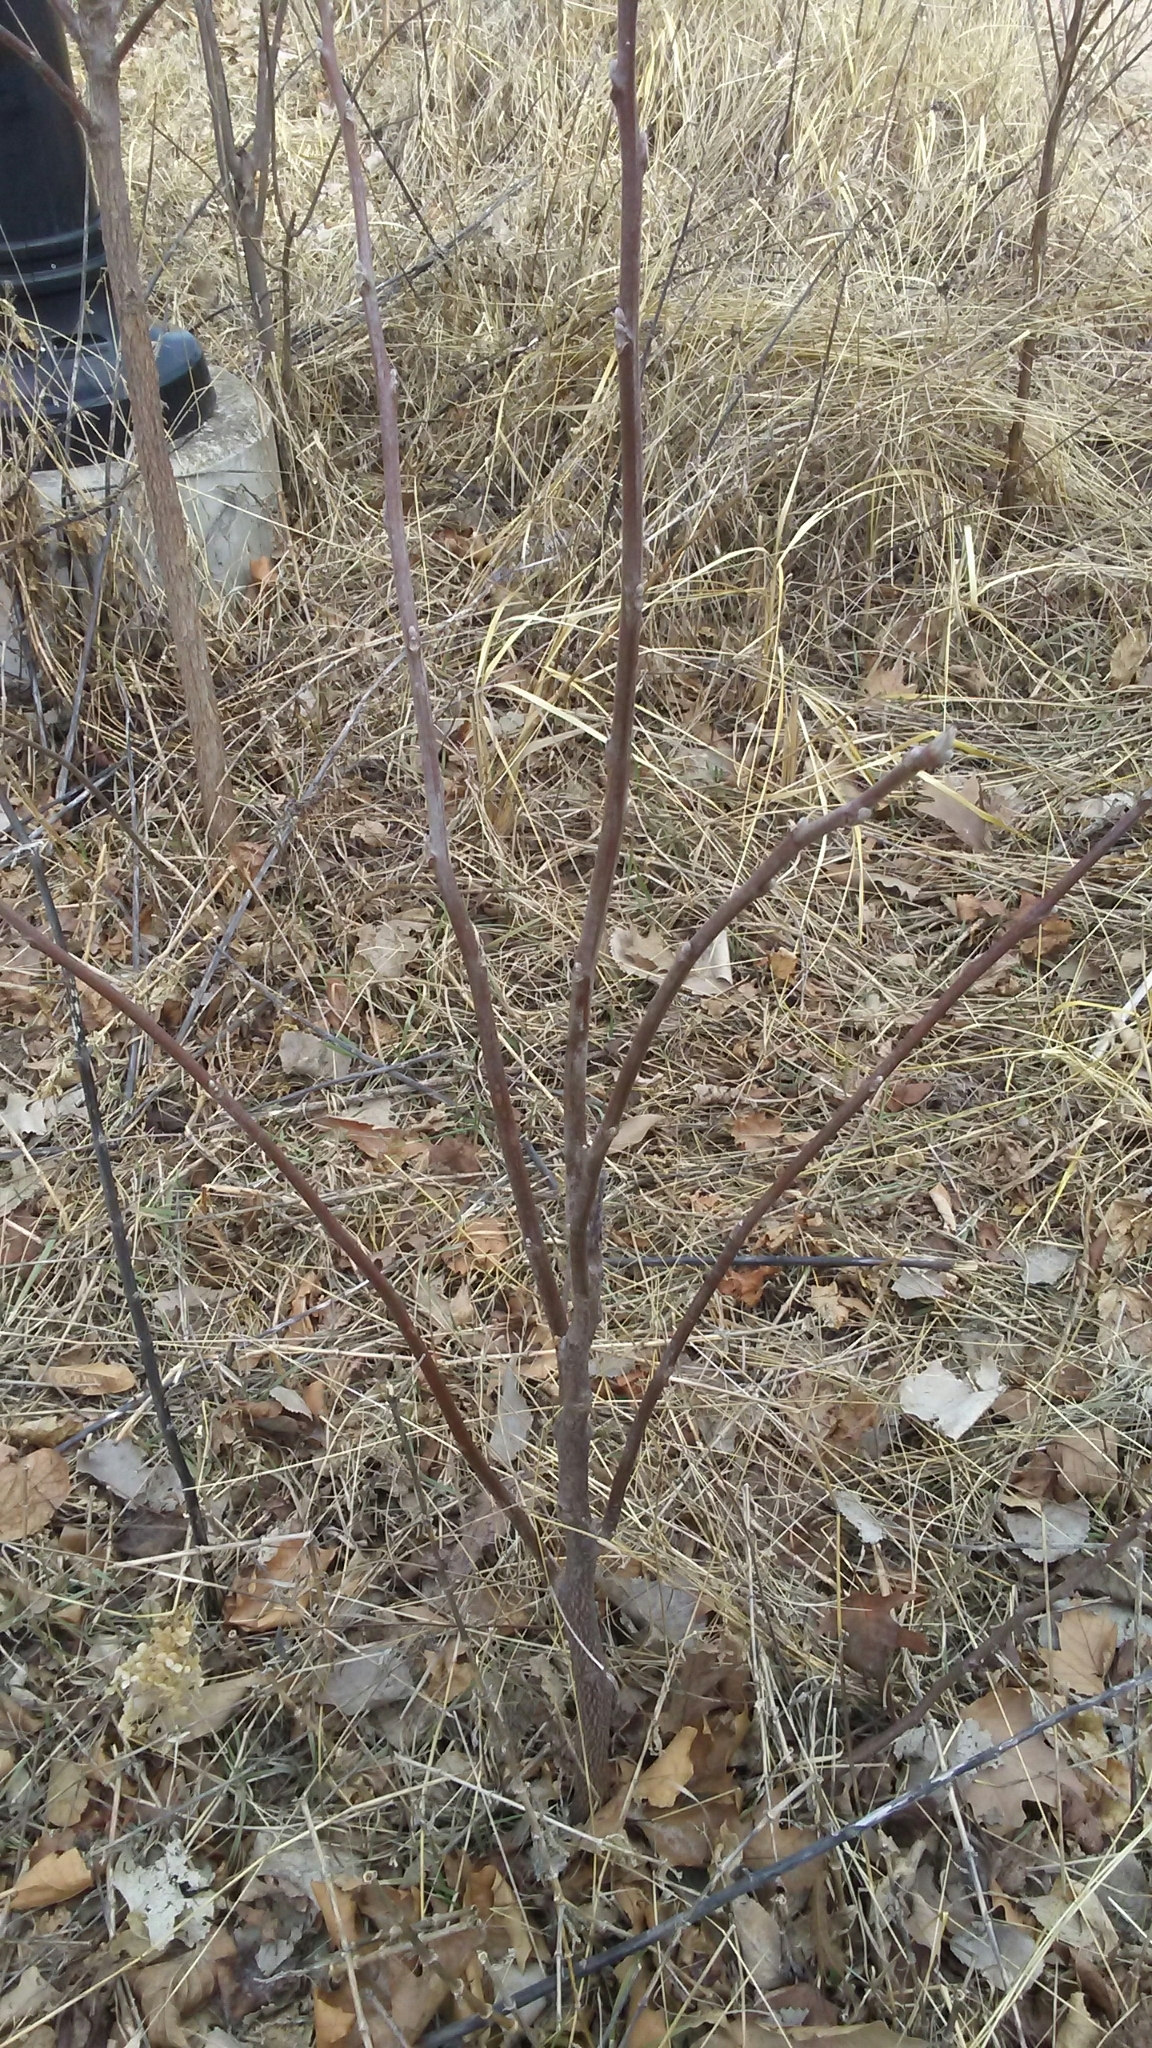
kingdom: Plantae
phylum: Tracheophyta
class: Magnoliopsida
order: Fagales
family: Juglandaceae
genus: Juglans
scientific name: Juglans nigra
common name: Black walnut
